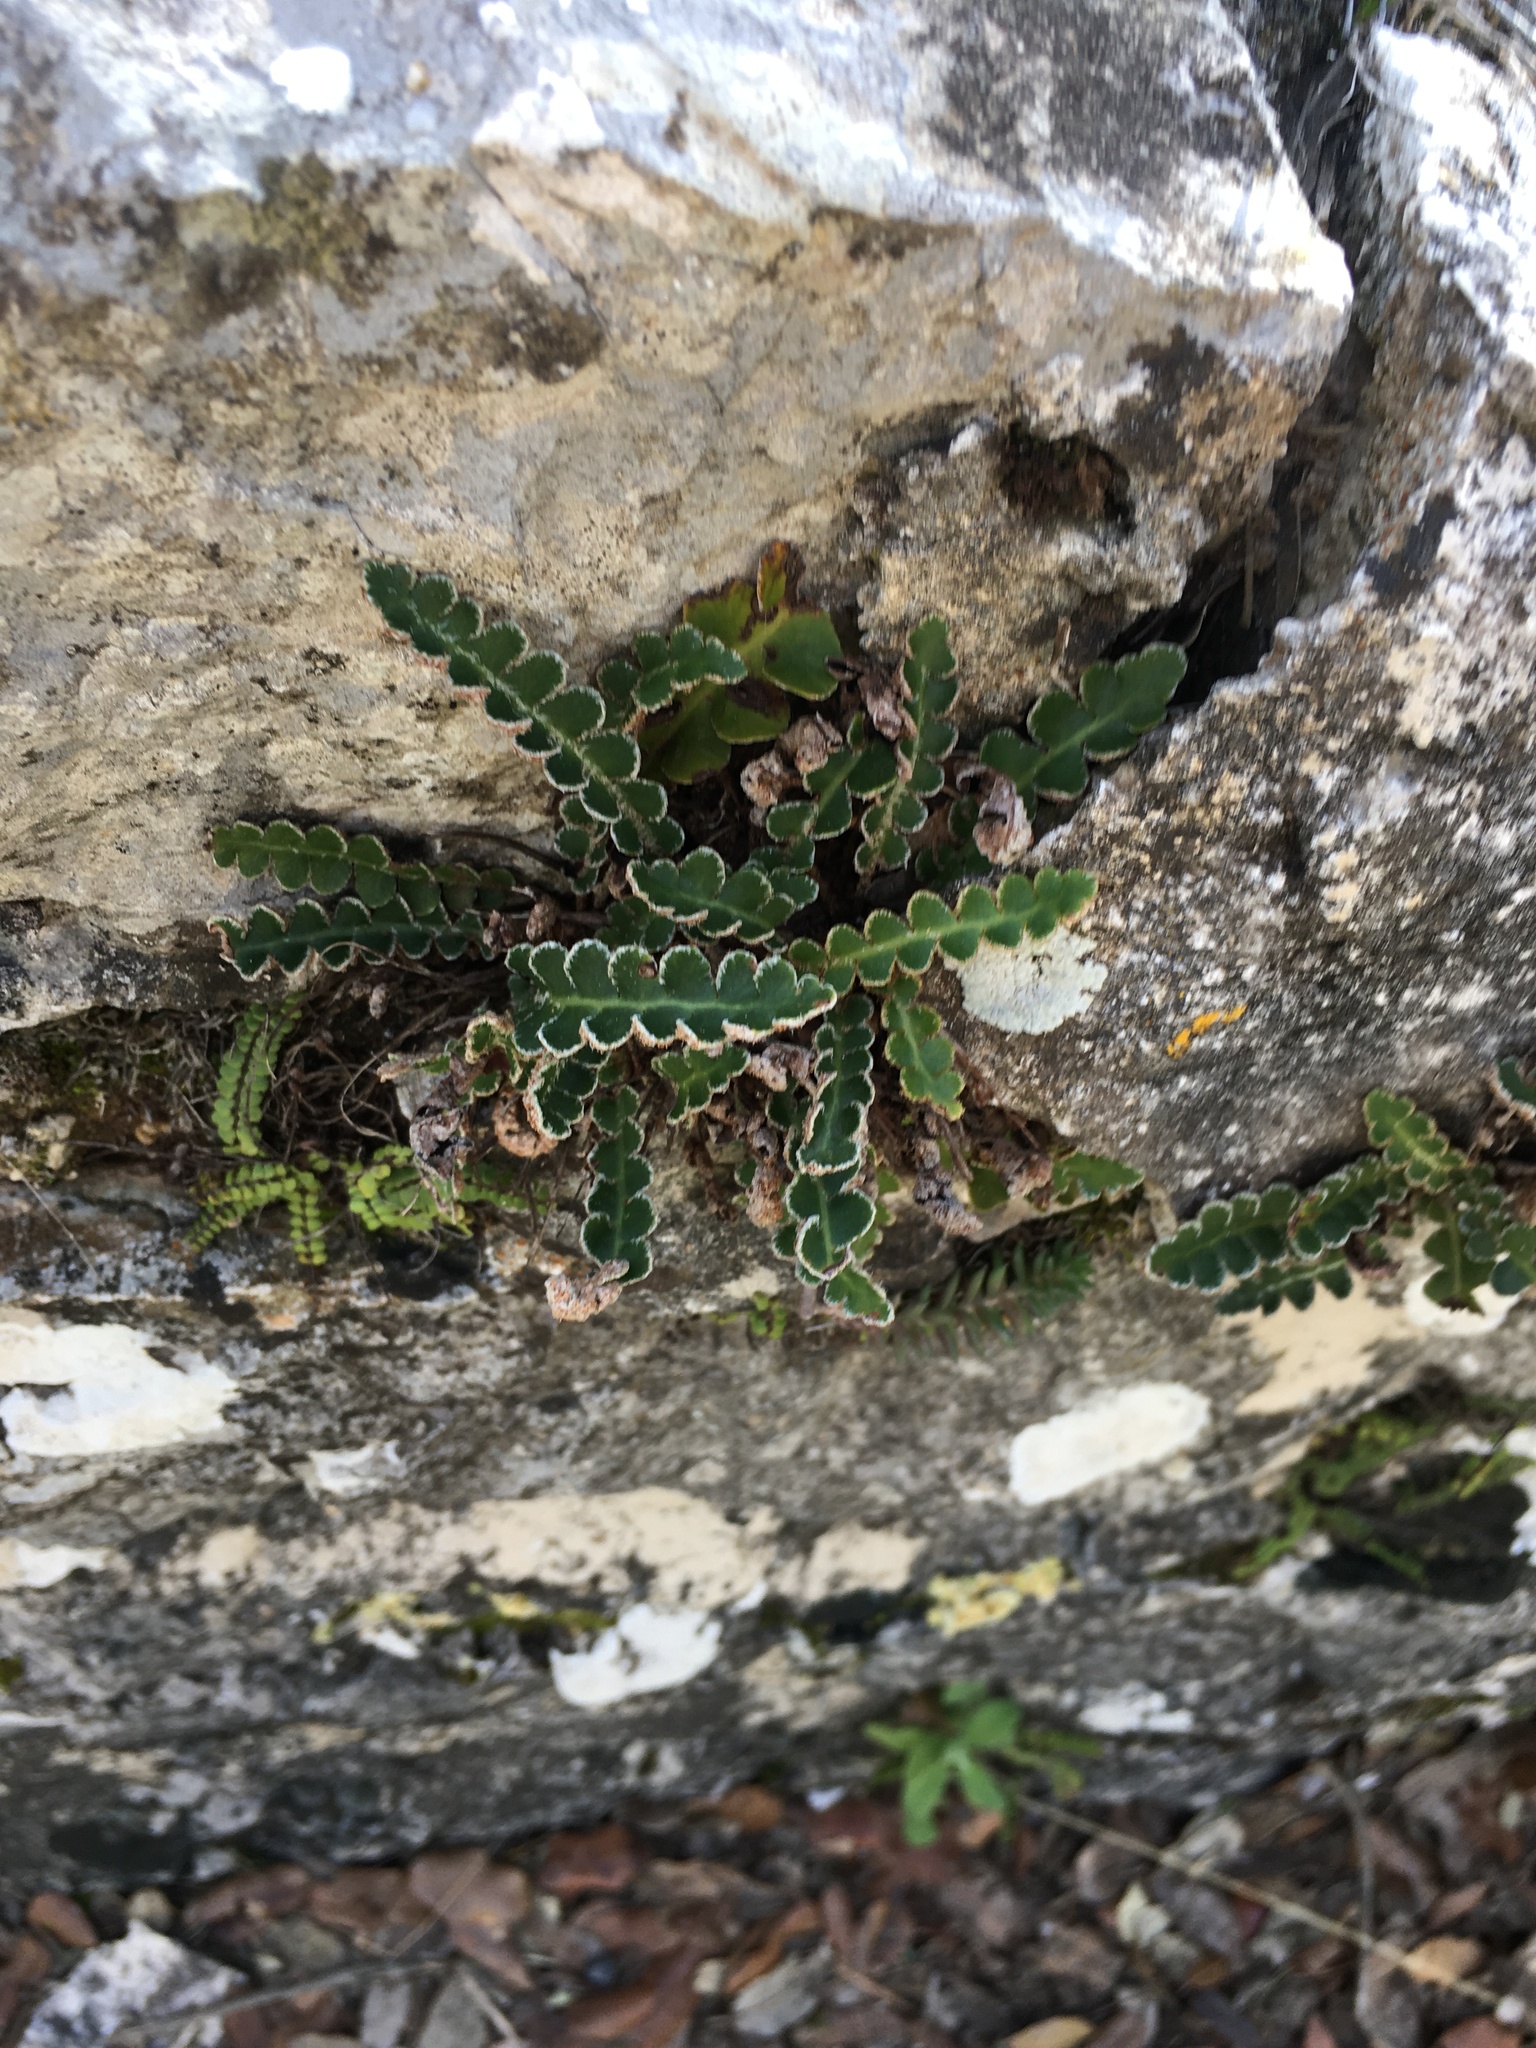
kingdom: Plantae
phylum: Tracheophyta
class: Polypodiopsida
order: Polypodiales
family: Aspleniaceae
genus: Asplenium
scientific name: Asplenium ceterach
